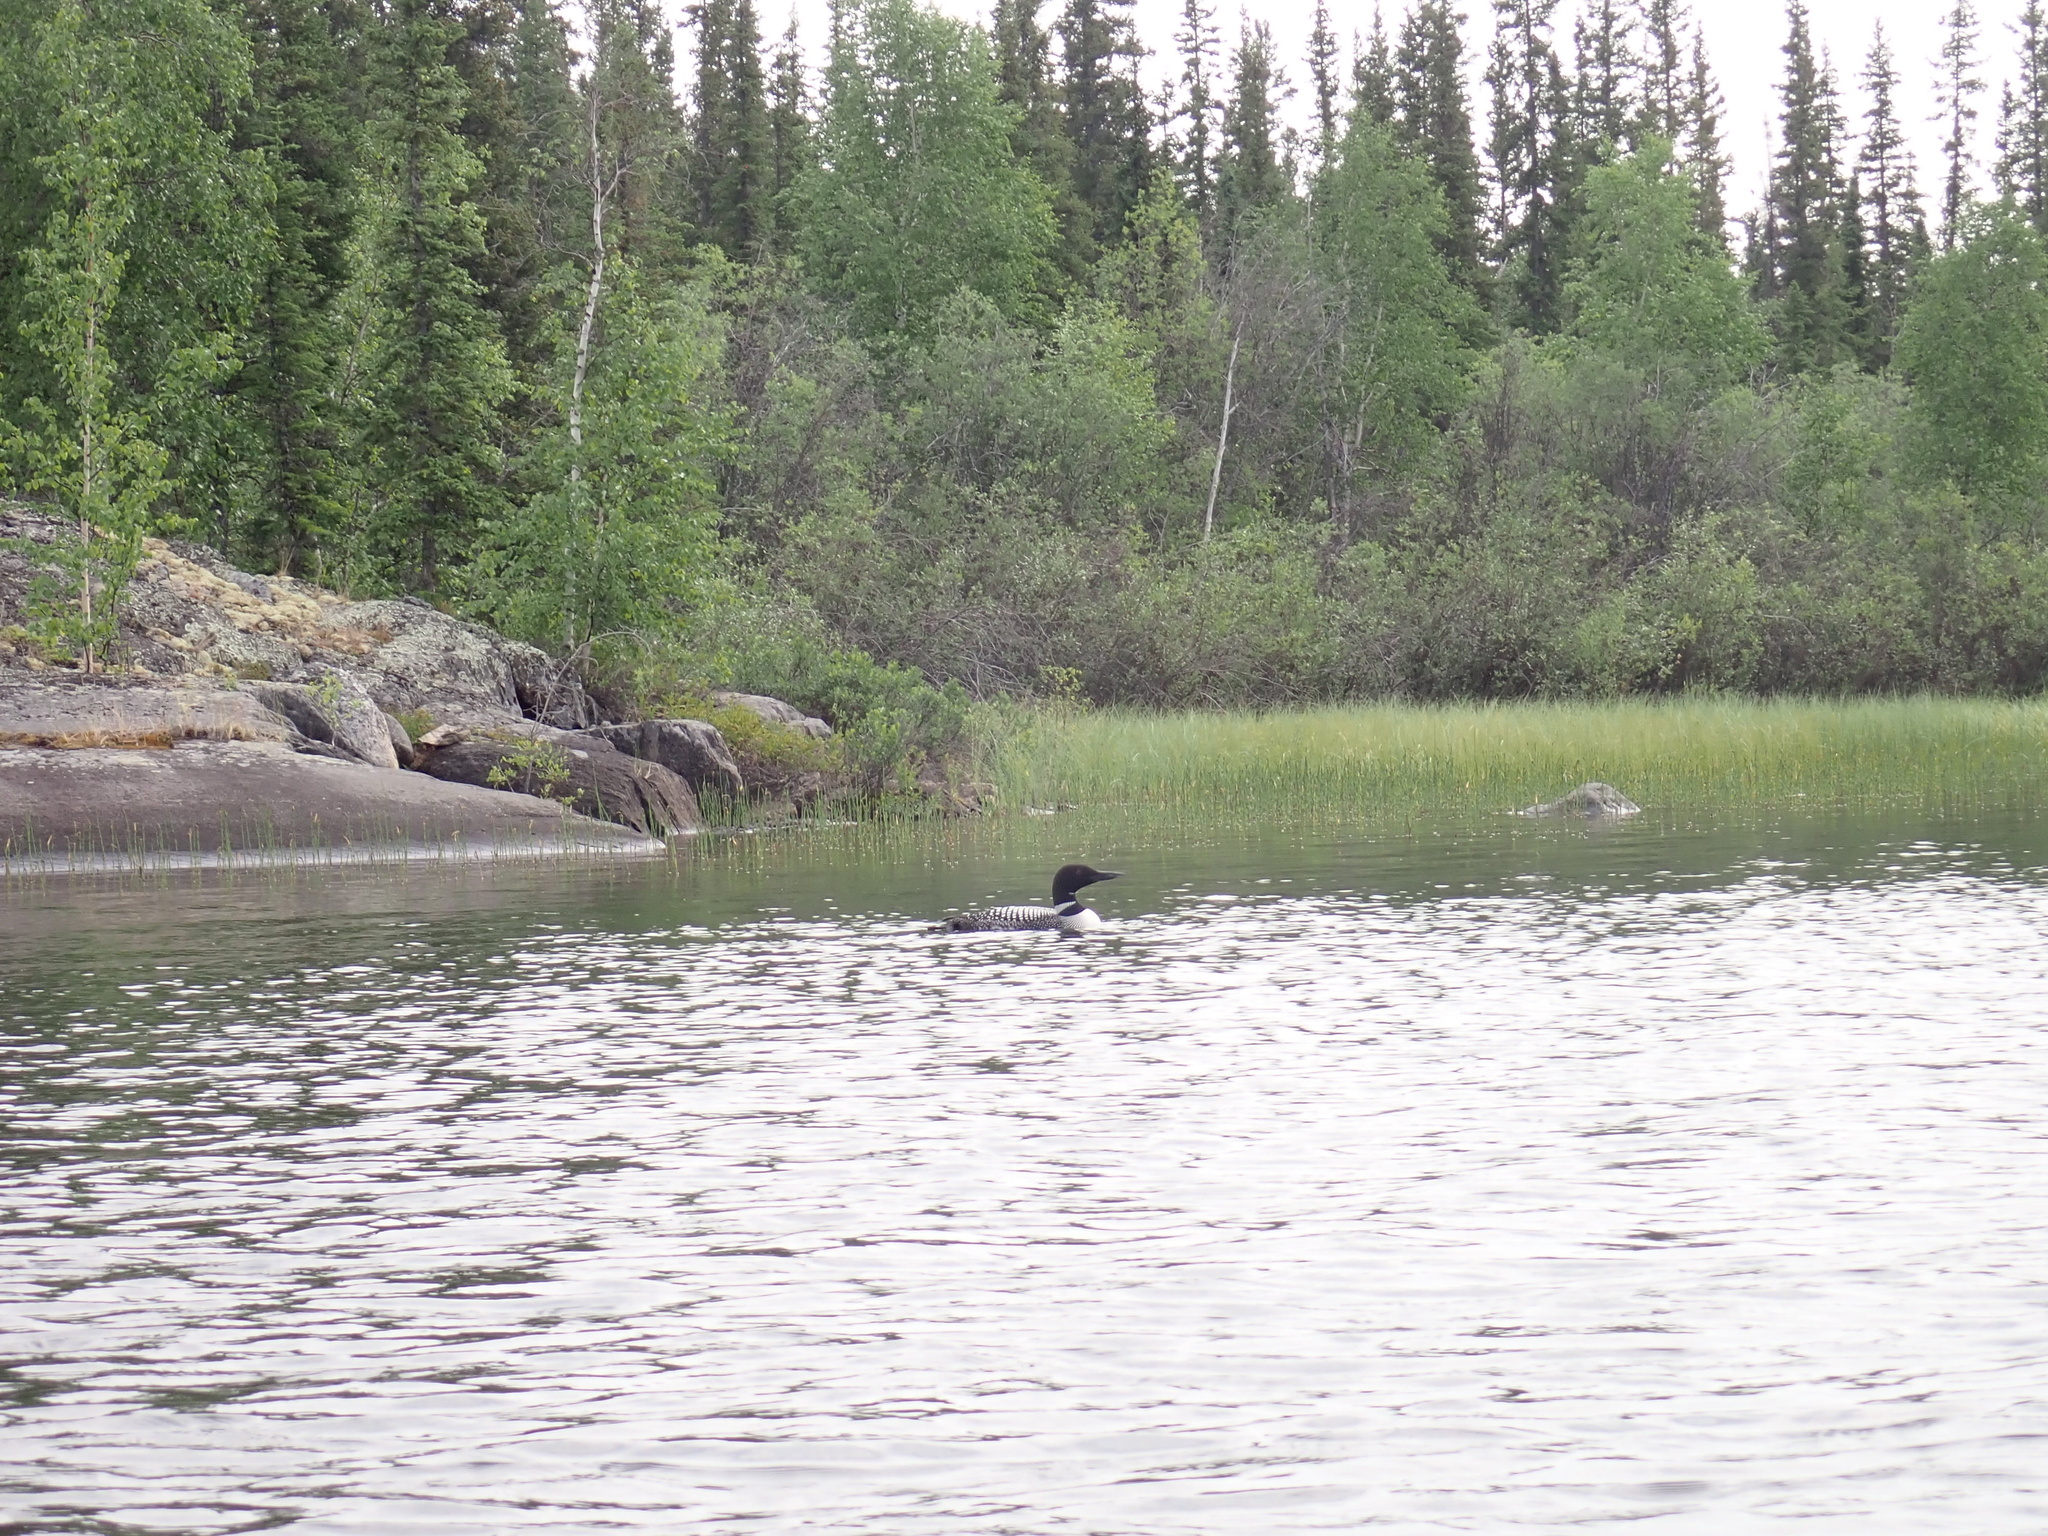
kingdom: Animalia
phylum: Chordata
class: Aves
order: Gaviiformes
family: Gaviidae
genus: Gavia
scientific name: Gavia immer
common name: Common loon
